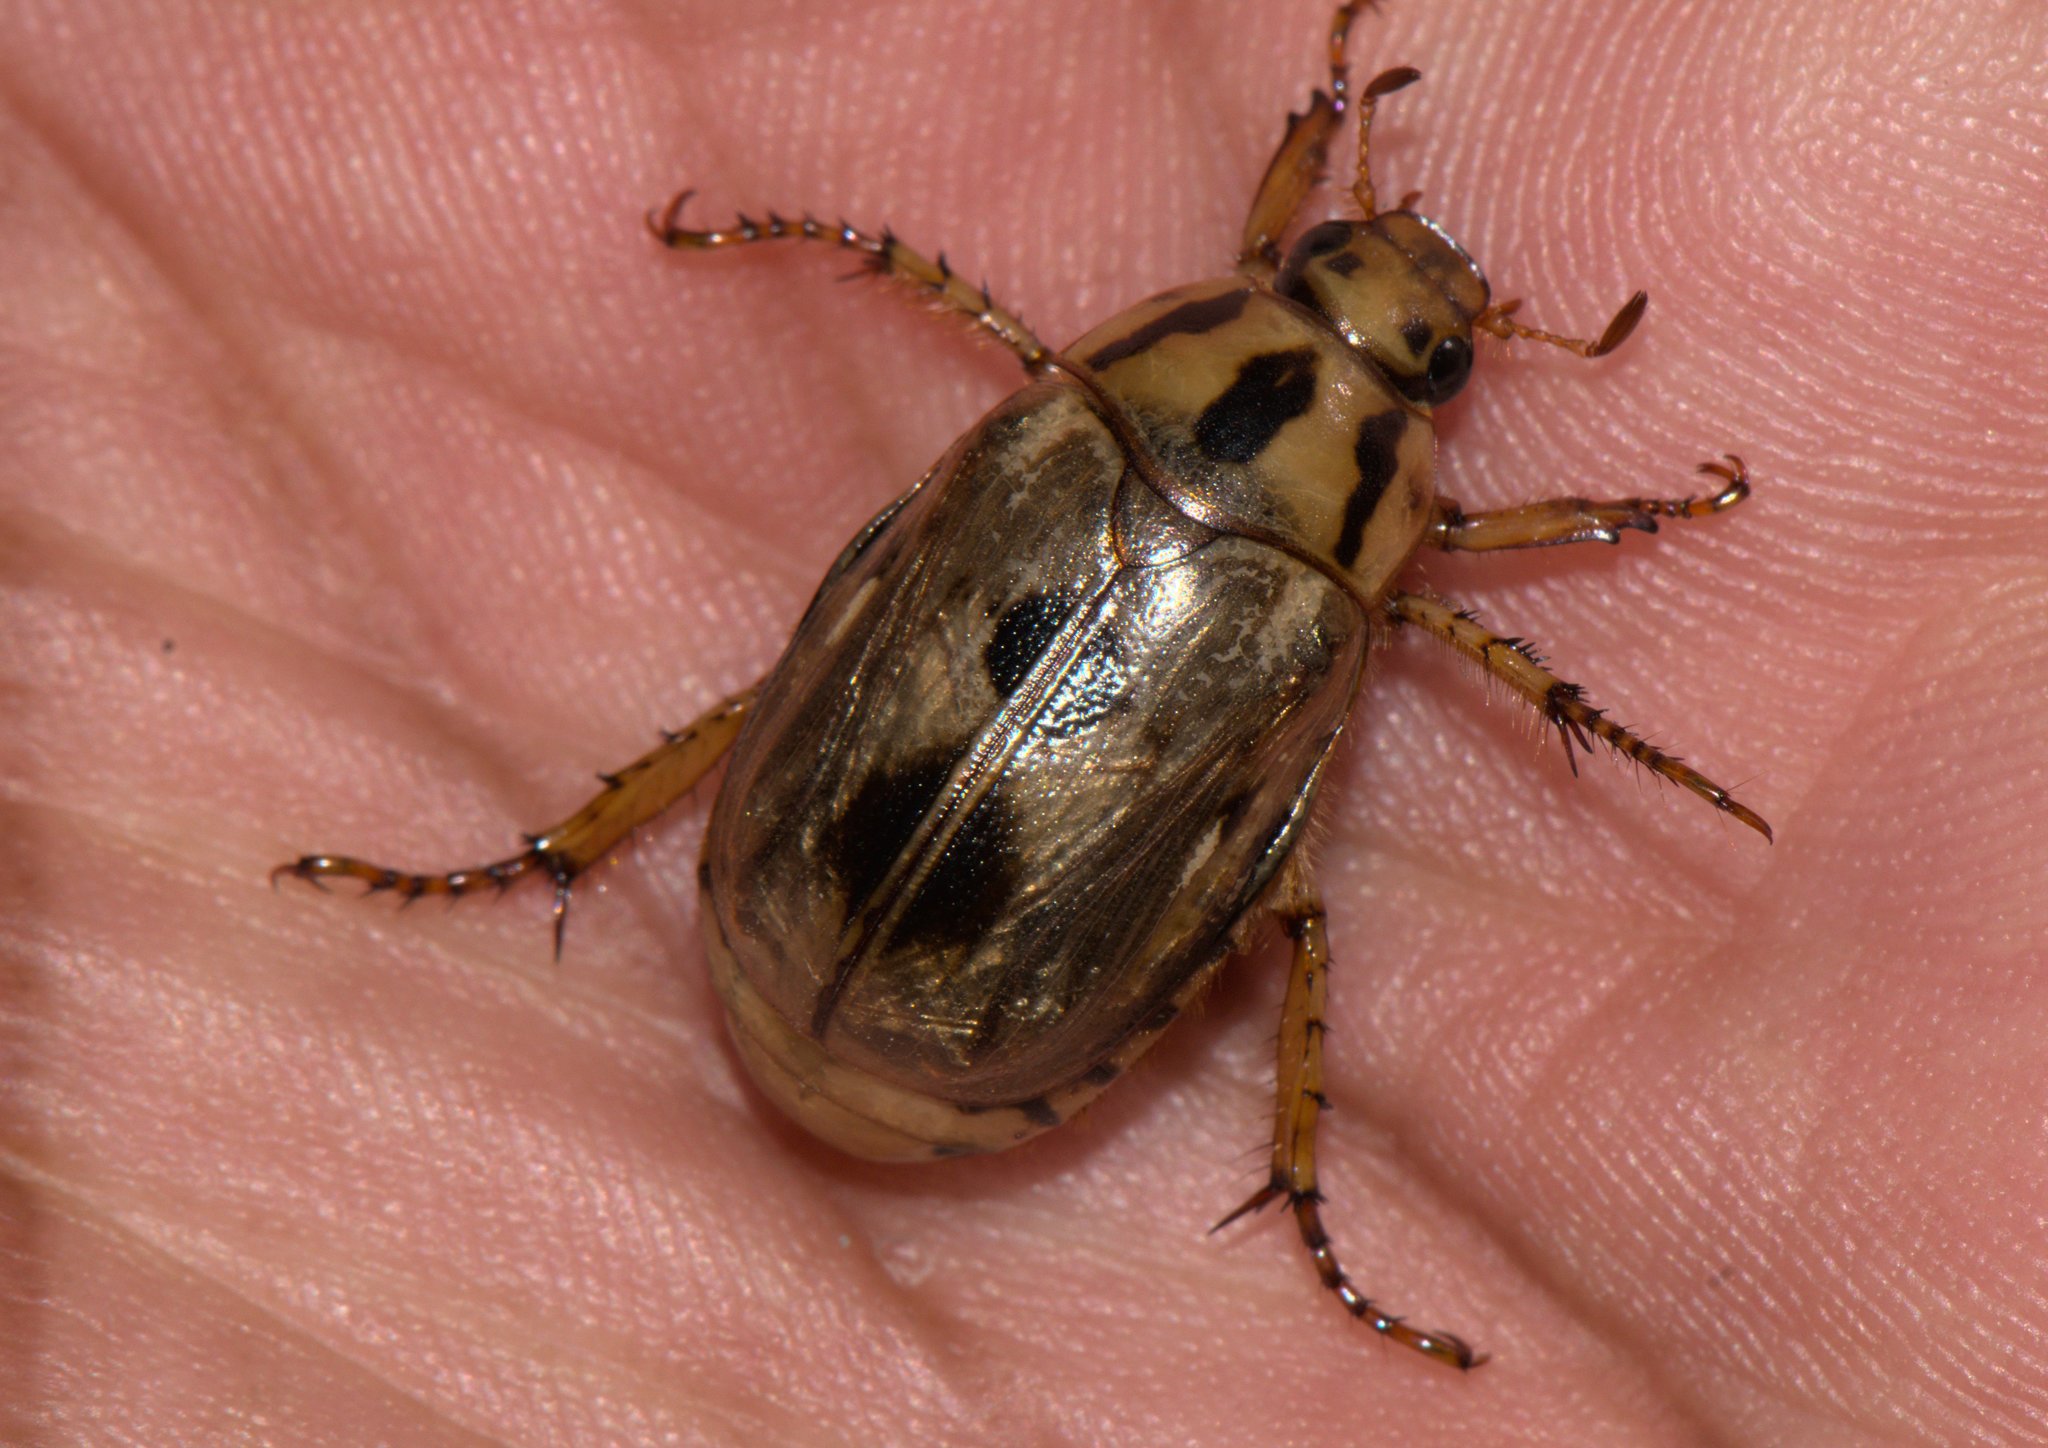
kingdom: Animalia
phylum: Arthropoda
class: Insecta
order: Coleoptera
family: Scarabaeidae
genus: Anomala
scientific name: Anomala trivirgata
